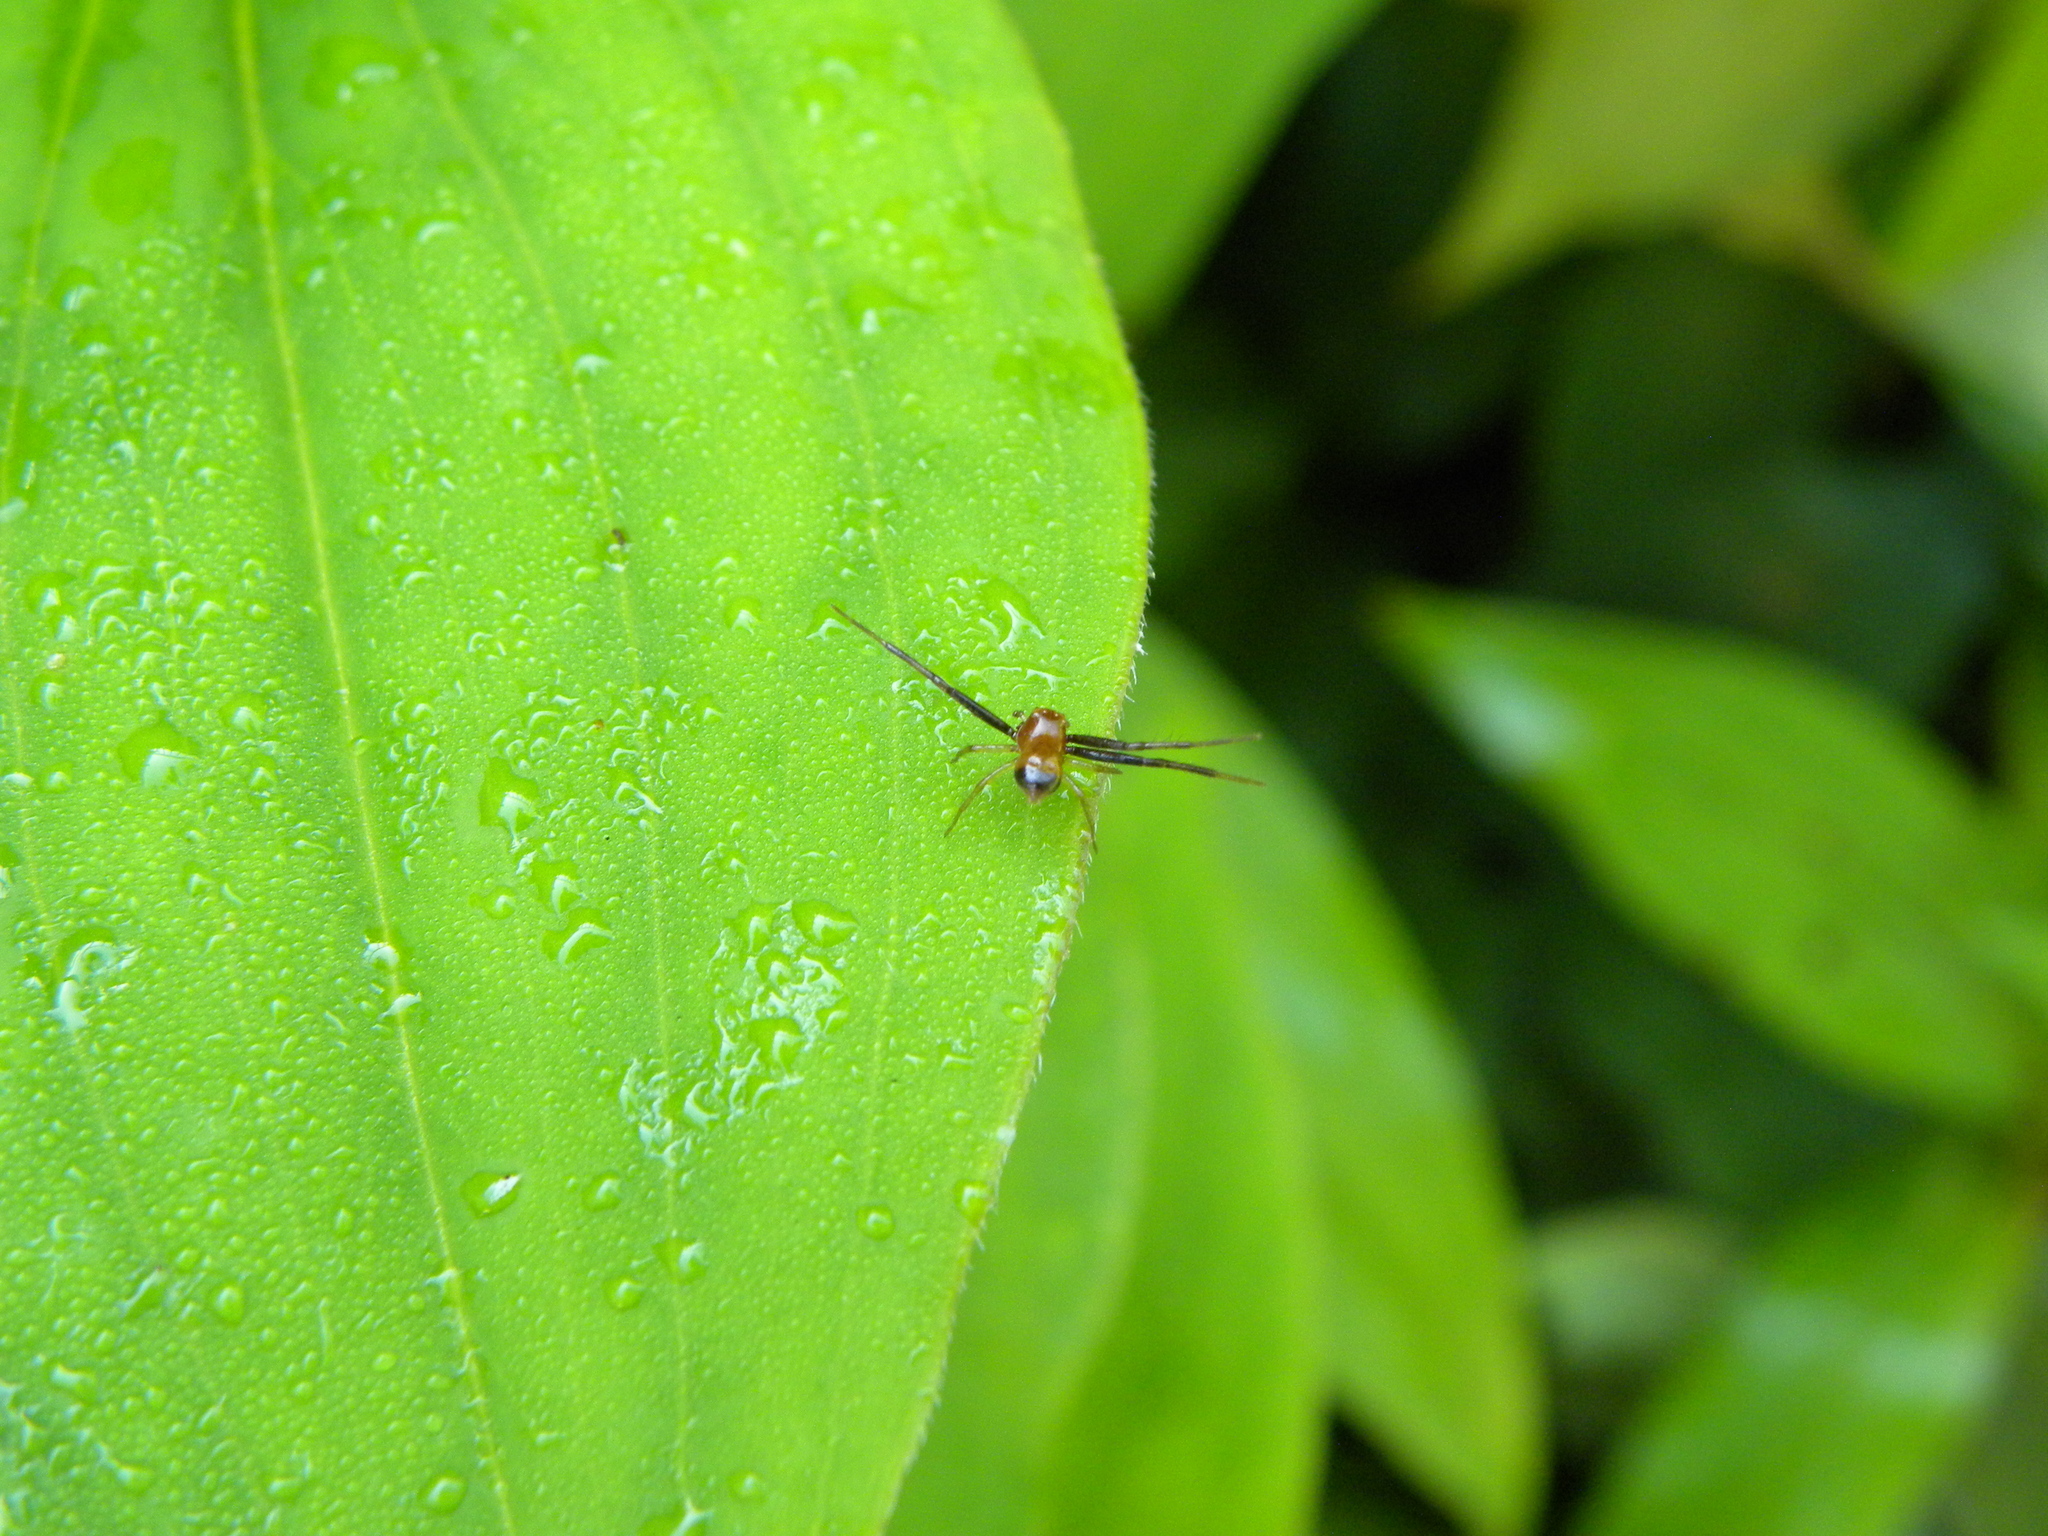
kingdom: Animalia
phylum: Arthropoda
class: Arachnida
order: Araneae
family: Thomisidae
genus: Synema
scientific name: Synema parvulum
